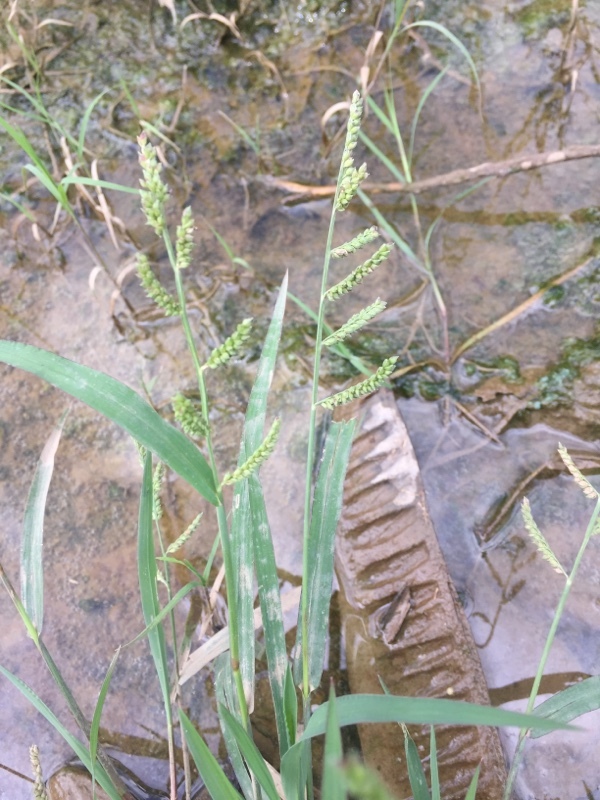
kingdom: Plantae
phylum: Tracheophyta
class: Liliopsida
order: Poales
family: Poaceae
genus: Echinochloa
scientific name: Echinochloa colonum
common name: Jungle rice
